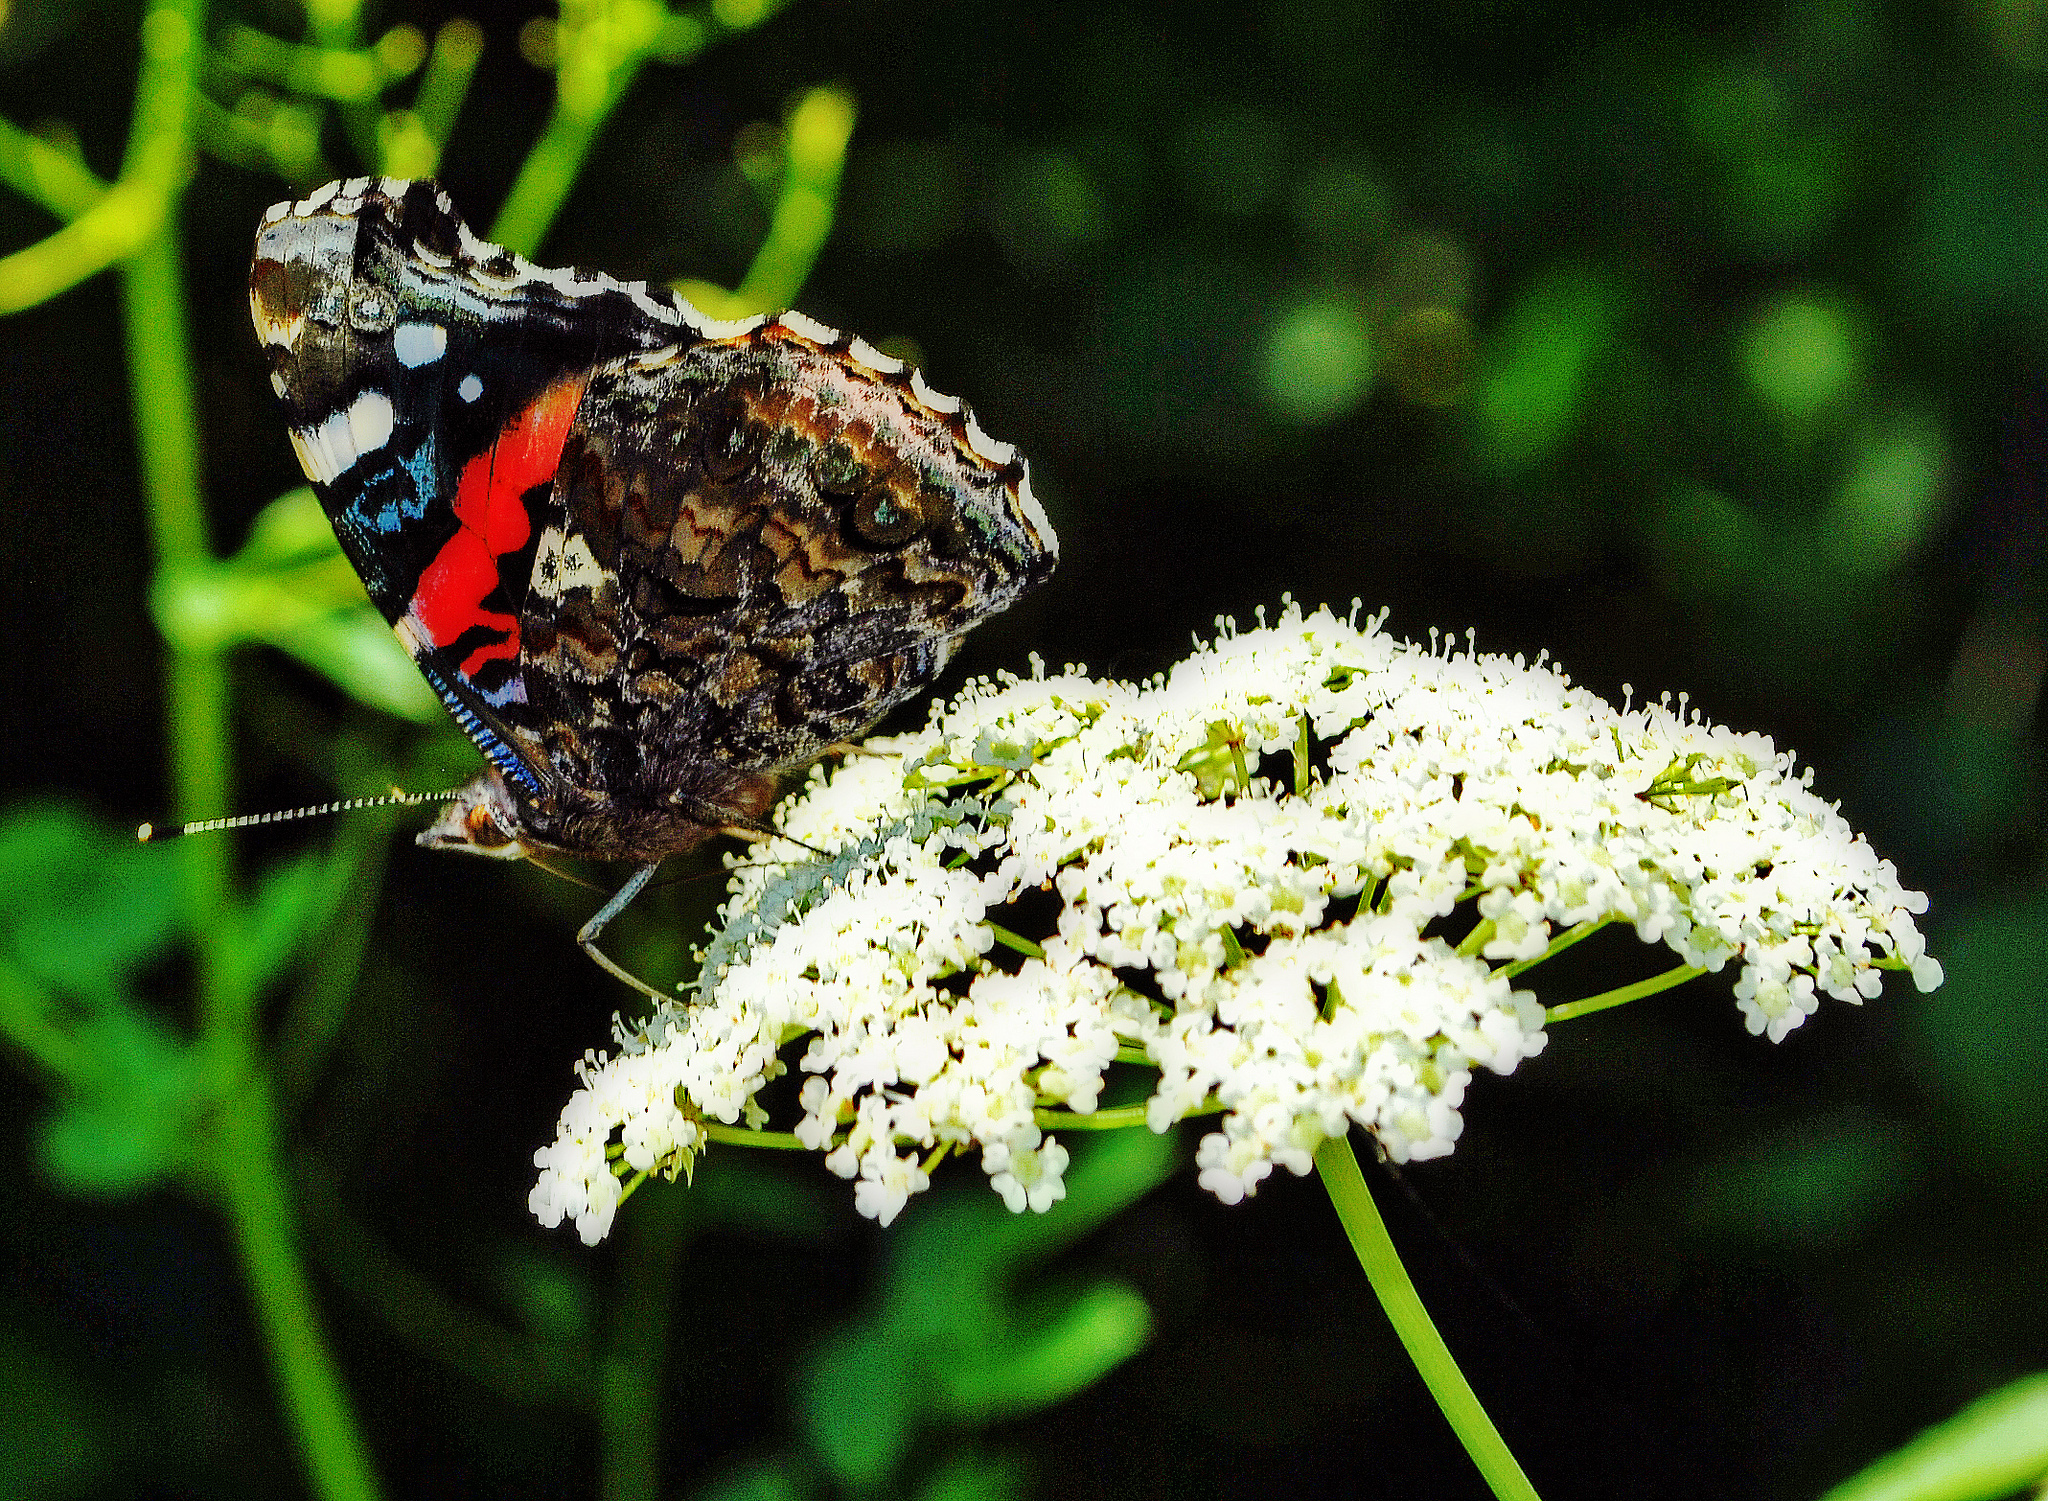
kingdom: Animalia
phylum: Arthropoda
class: Insecta
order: Lepidoptera
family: Nymphalidae
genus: Vanessa
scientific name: Vanessa atalanta
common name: Red admiral
